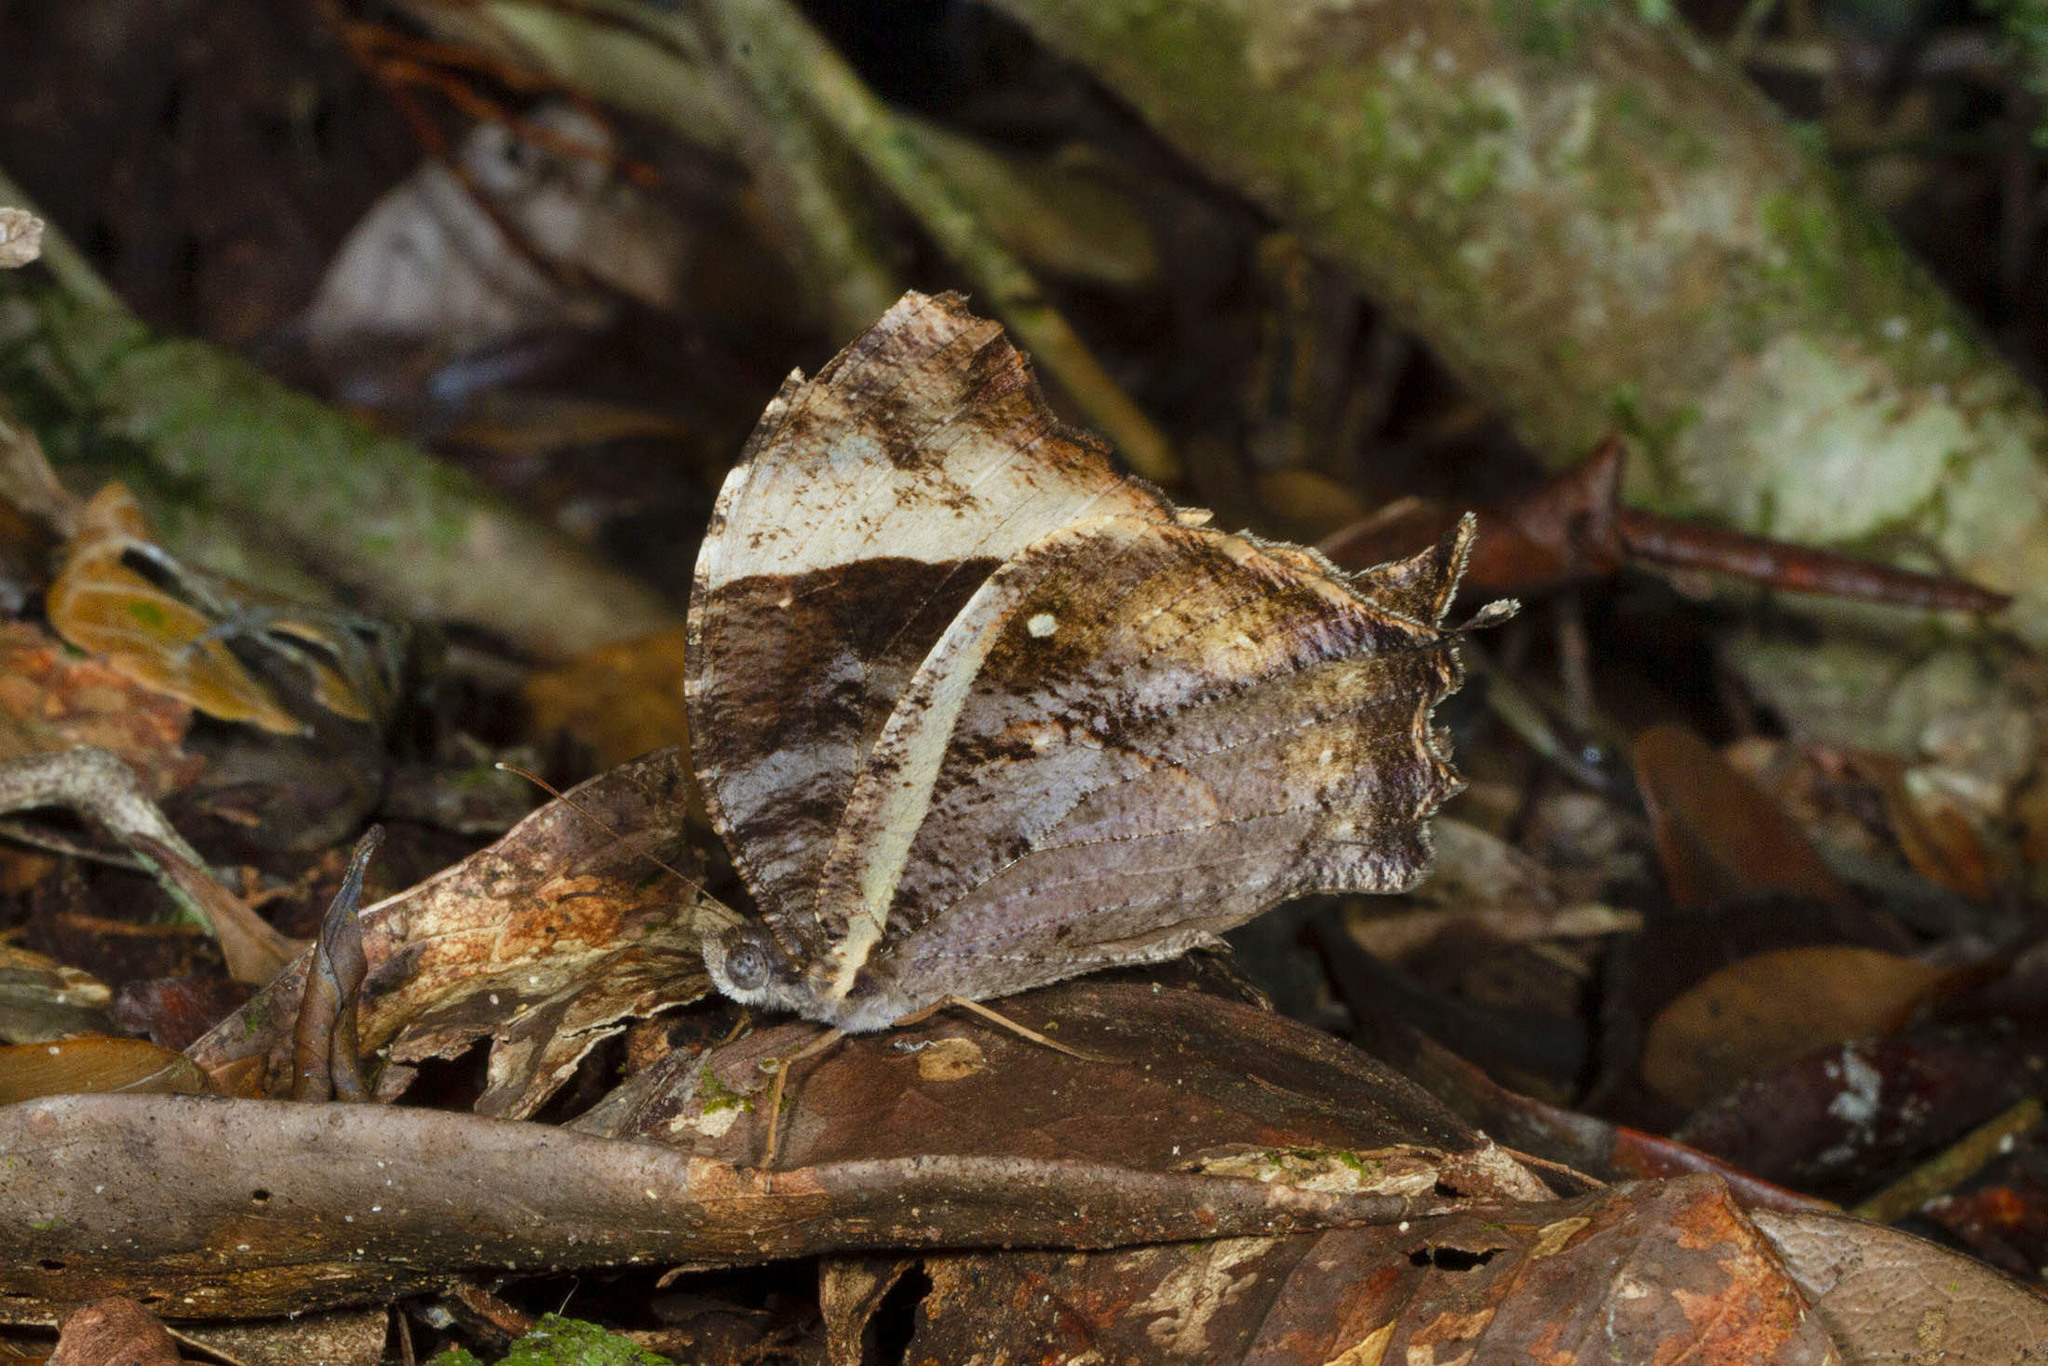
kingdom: Animalia
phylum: Arthropoda
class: Insecta
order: Lepidoptera
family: Nymphalidae
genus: Gnophodes
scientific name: Gnophodes parmeno
